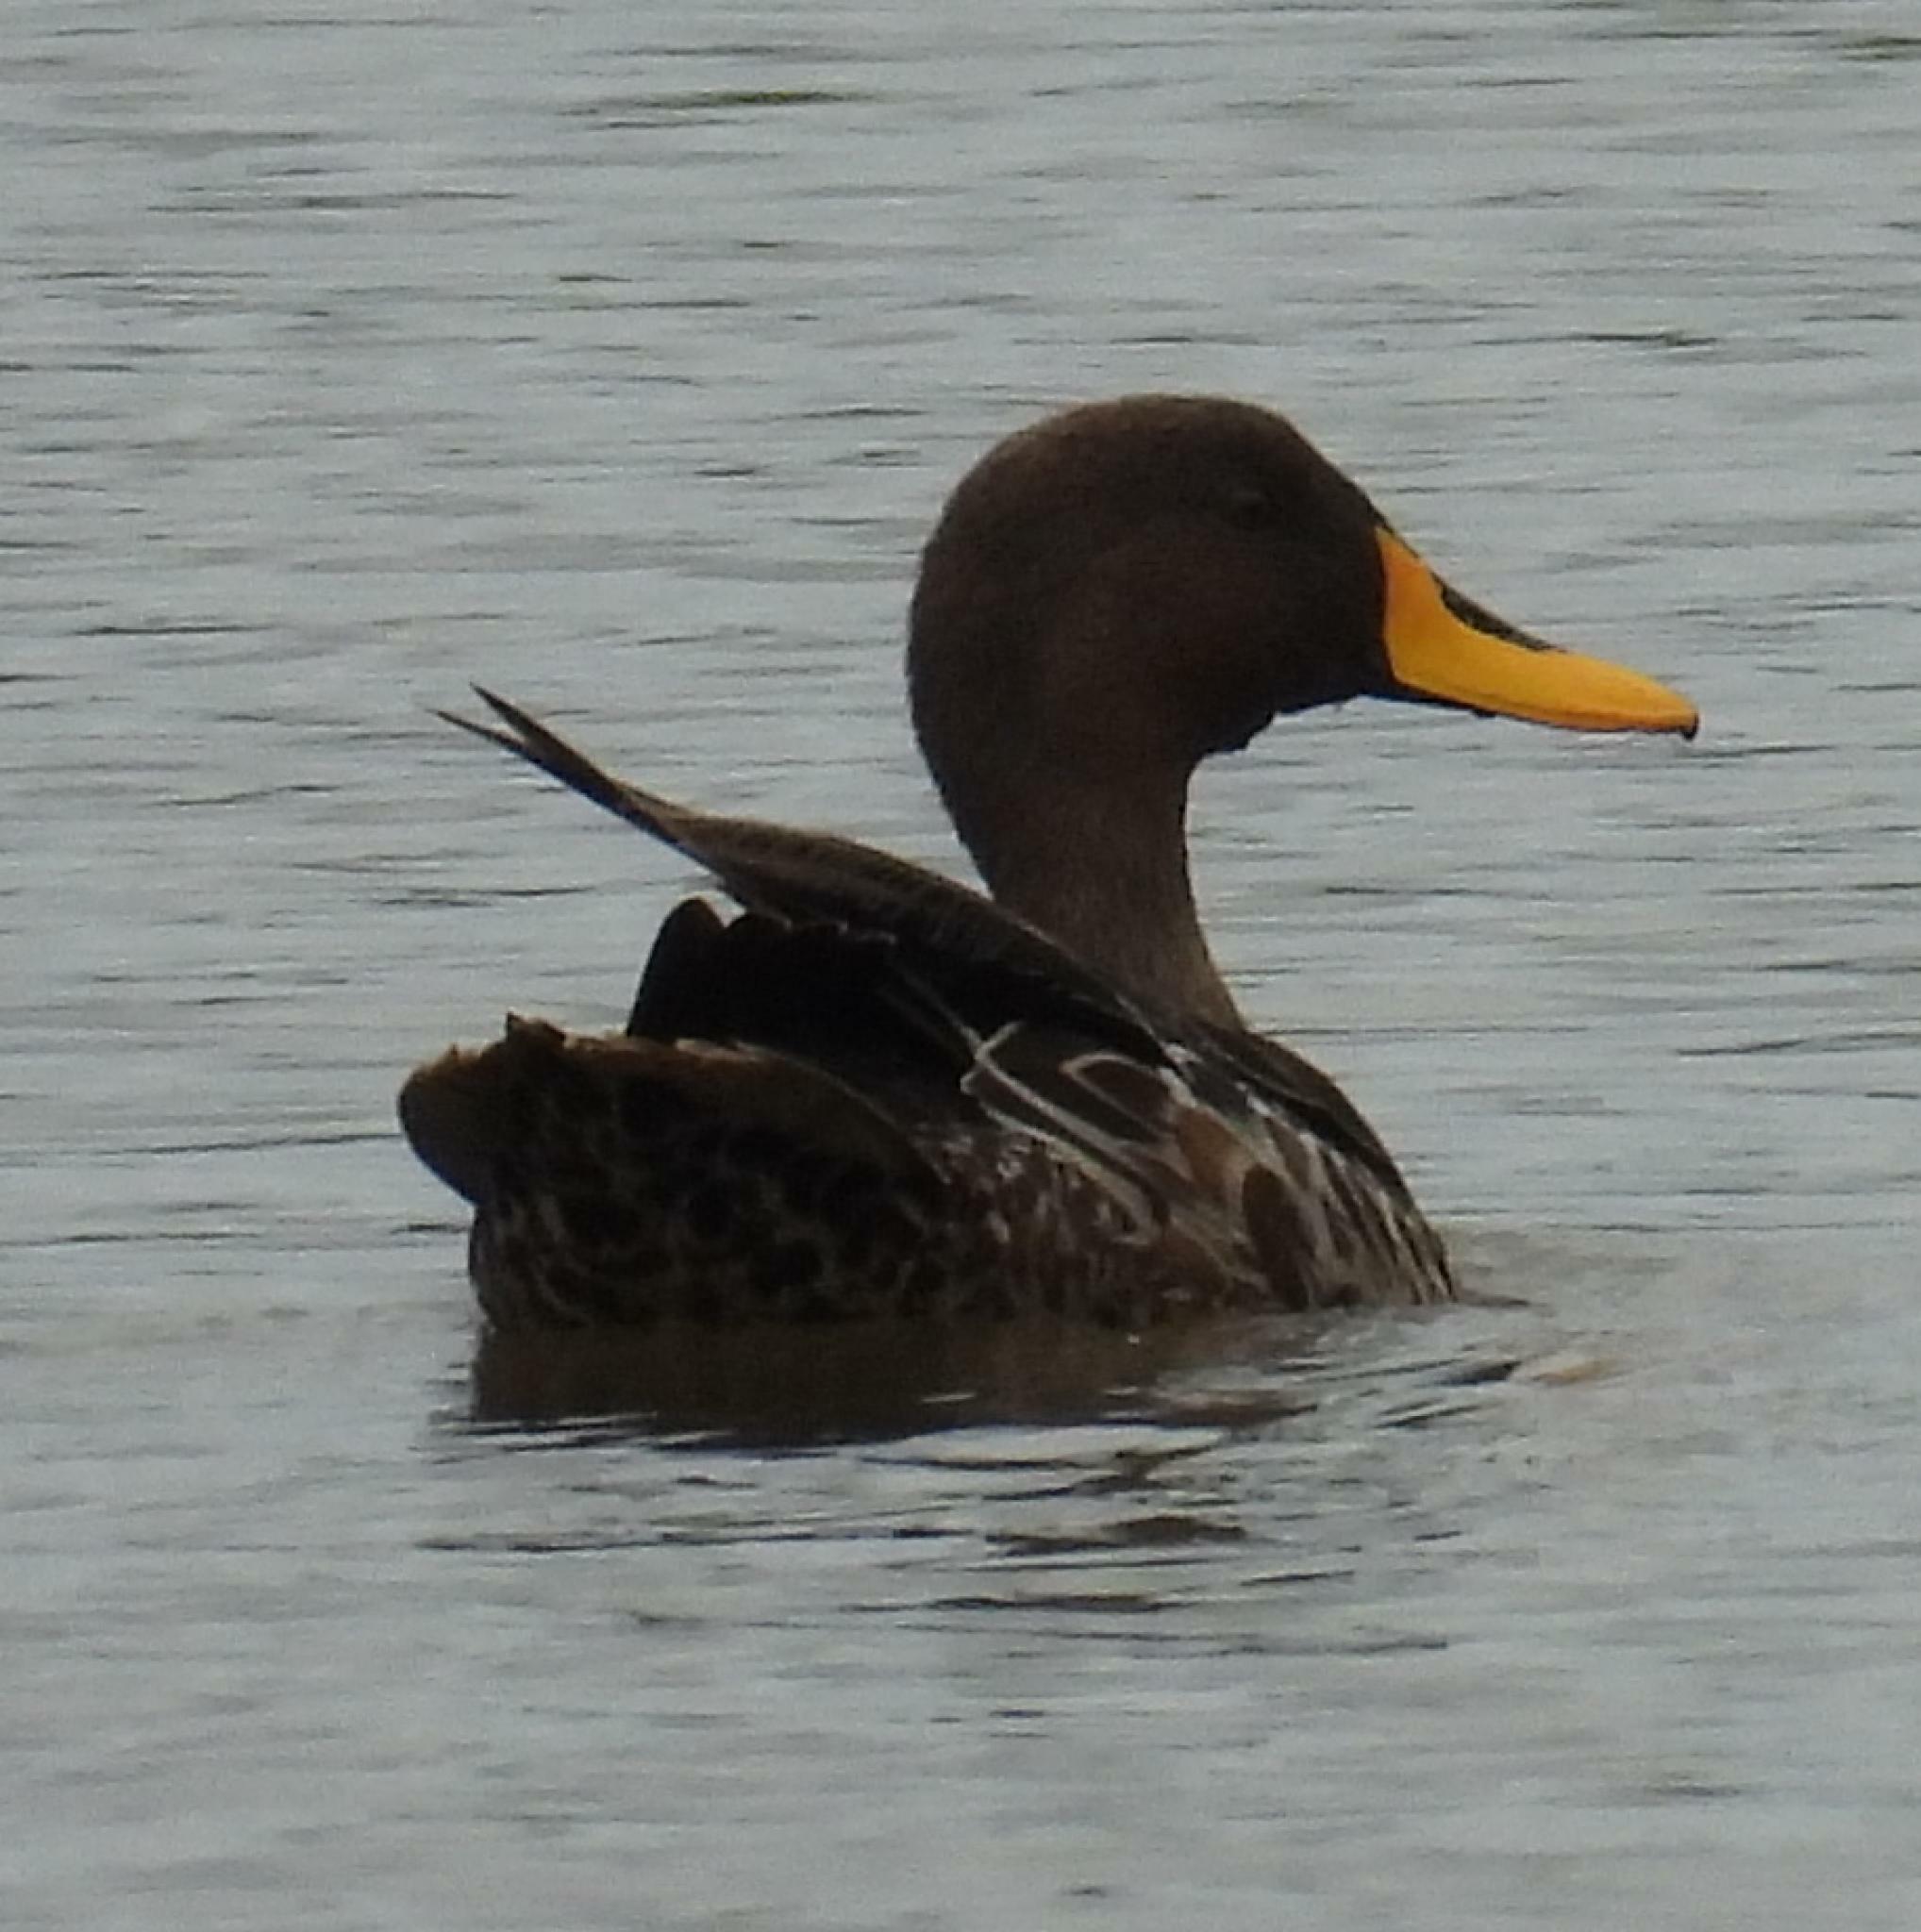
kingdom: Animalia
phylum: Chordata
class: Aves
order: Anseriformes
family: Anatidae
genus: Anas
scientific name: Anas undulata
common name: Yellow-billed duck
